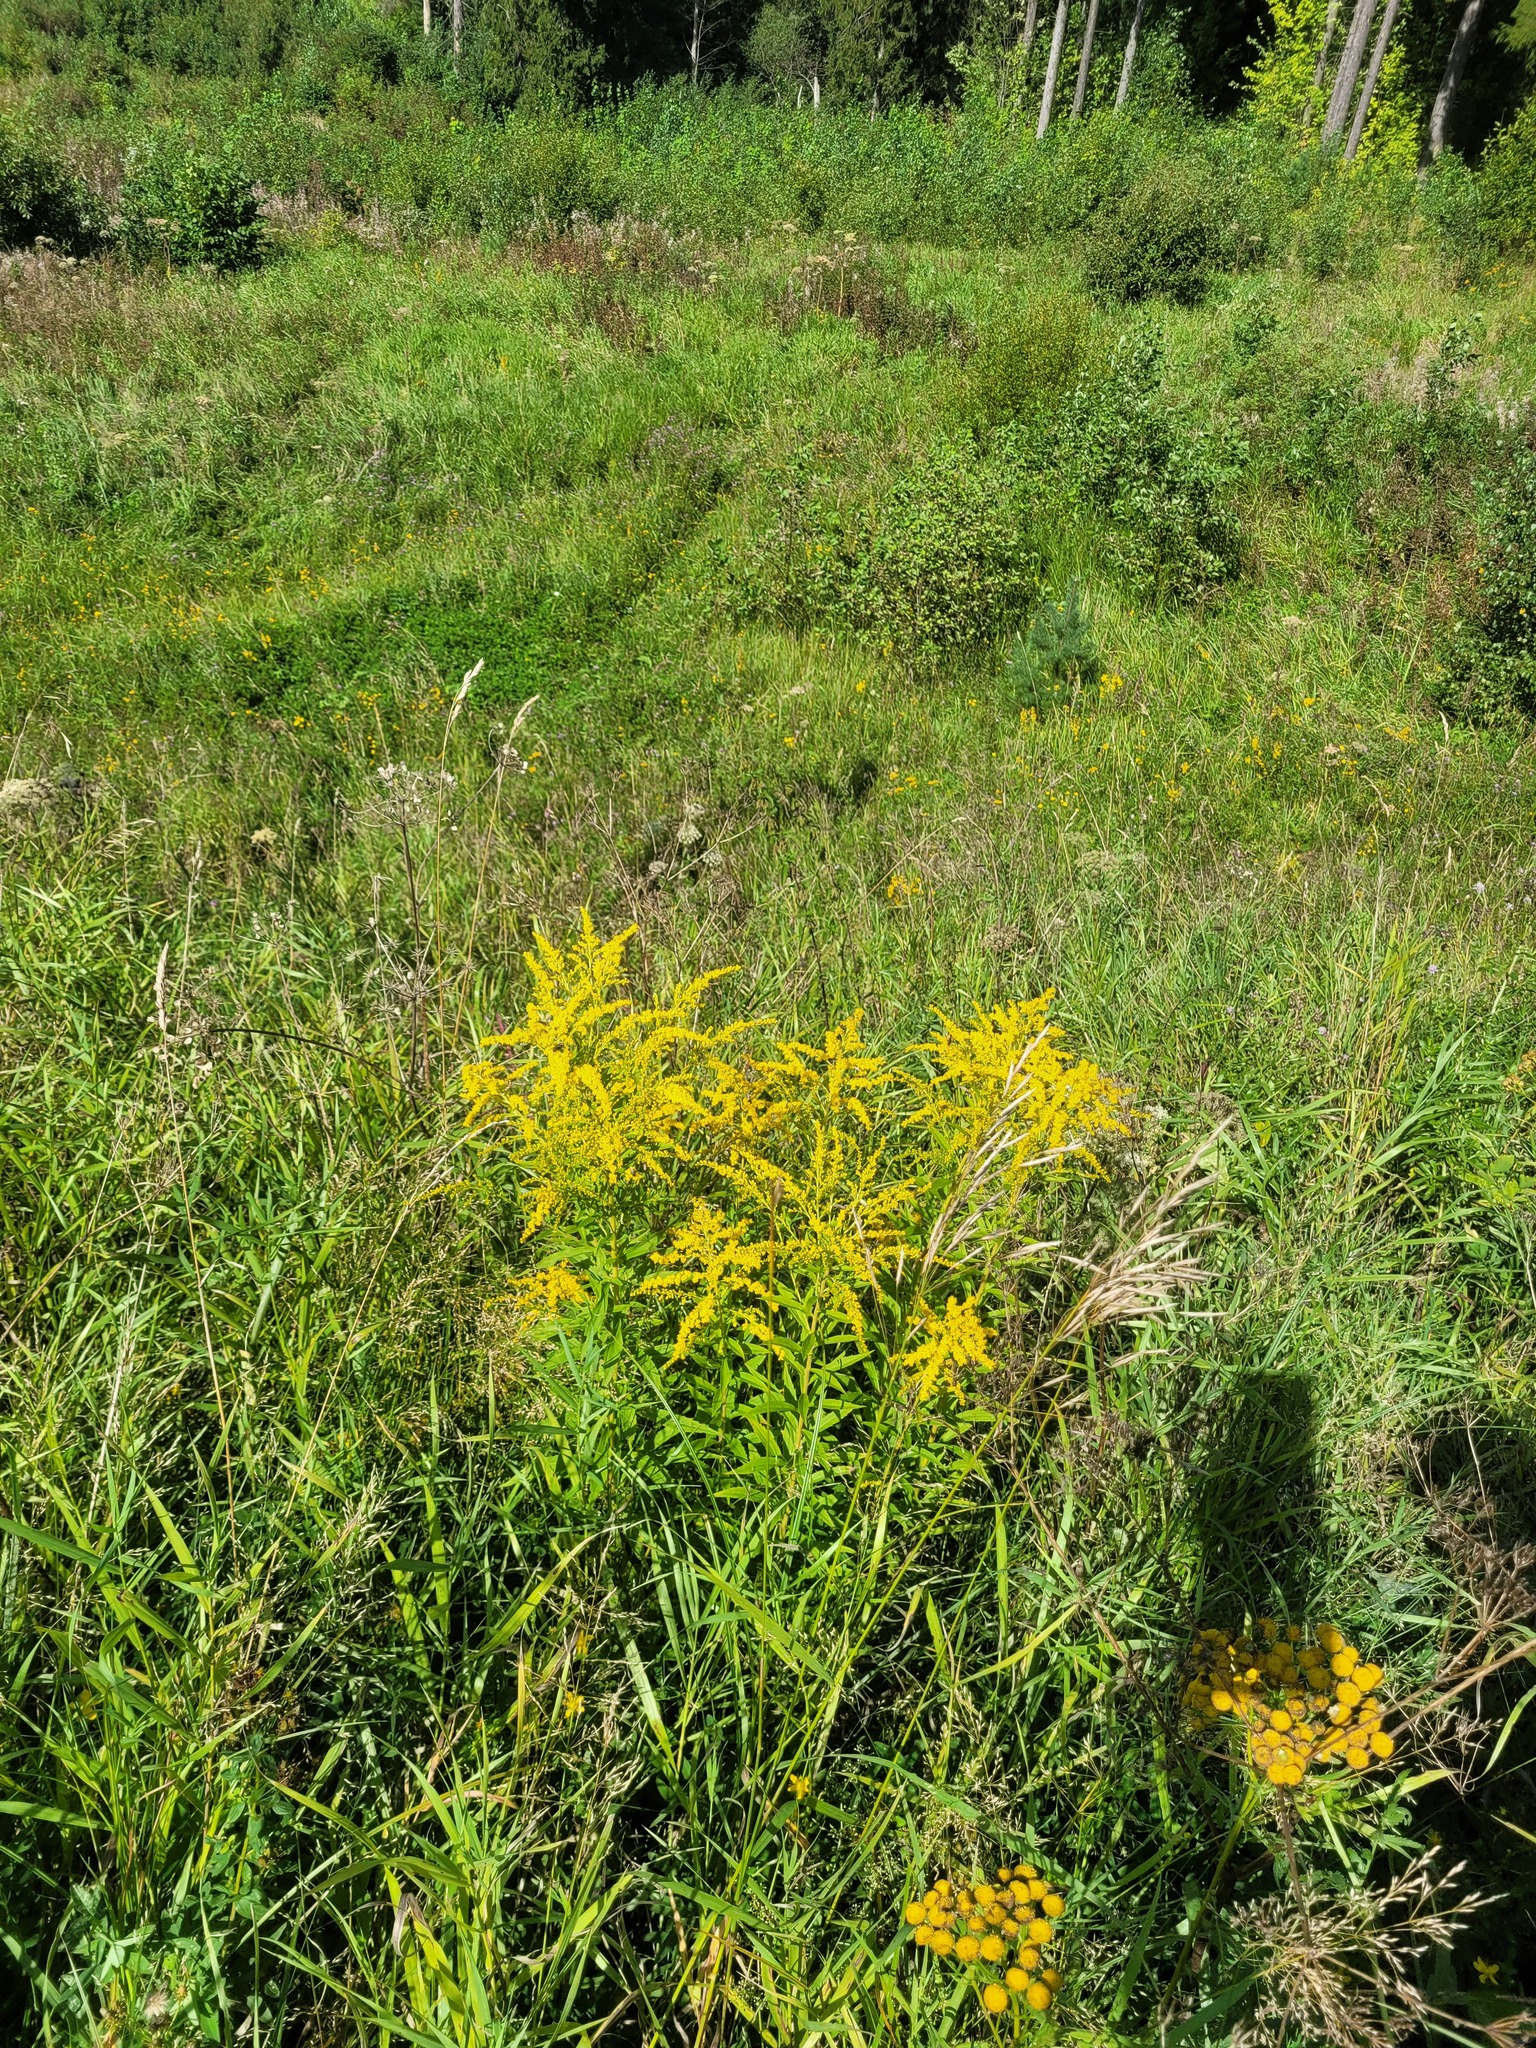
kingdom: Plantae
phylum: Tracheophyta
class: Magnoliopsida
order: Asterales
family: Asteraceae
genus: Solidago
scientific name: Solidago canadensis
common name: Canada goldenrod
